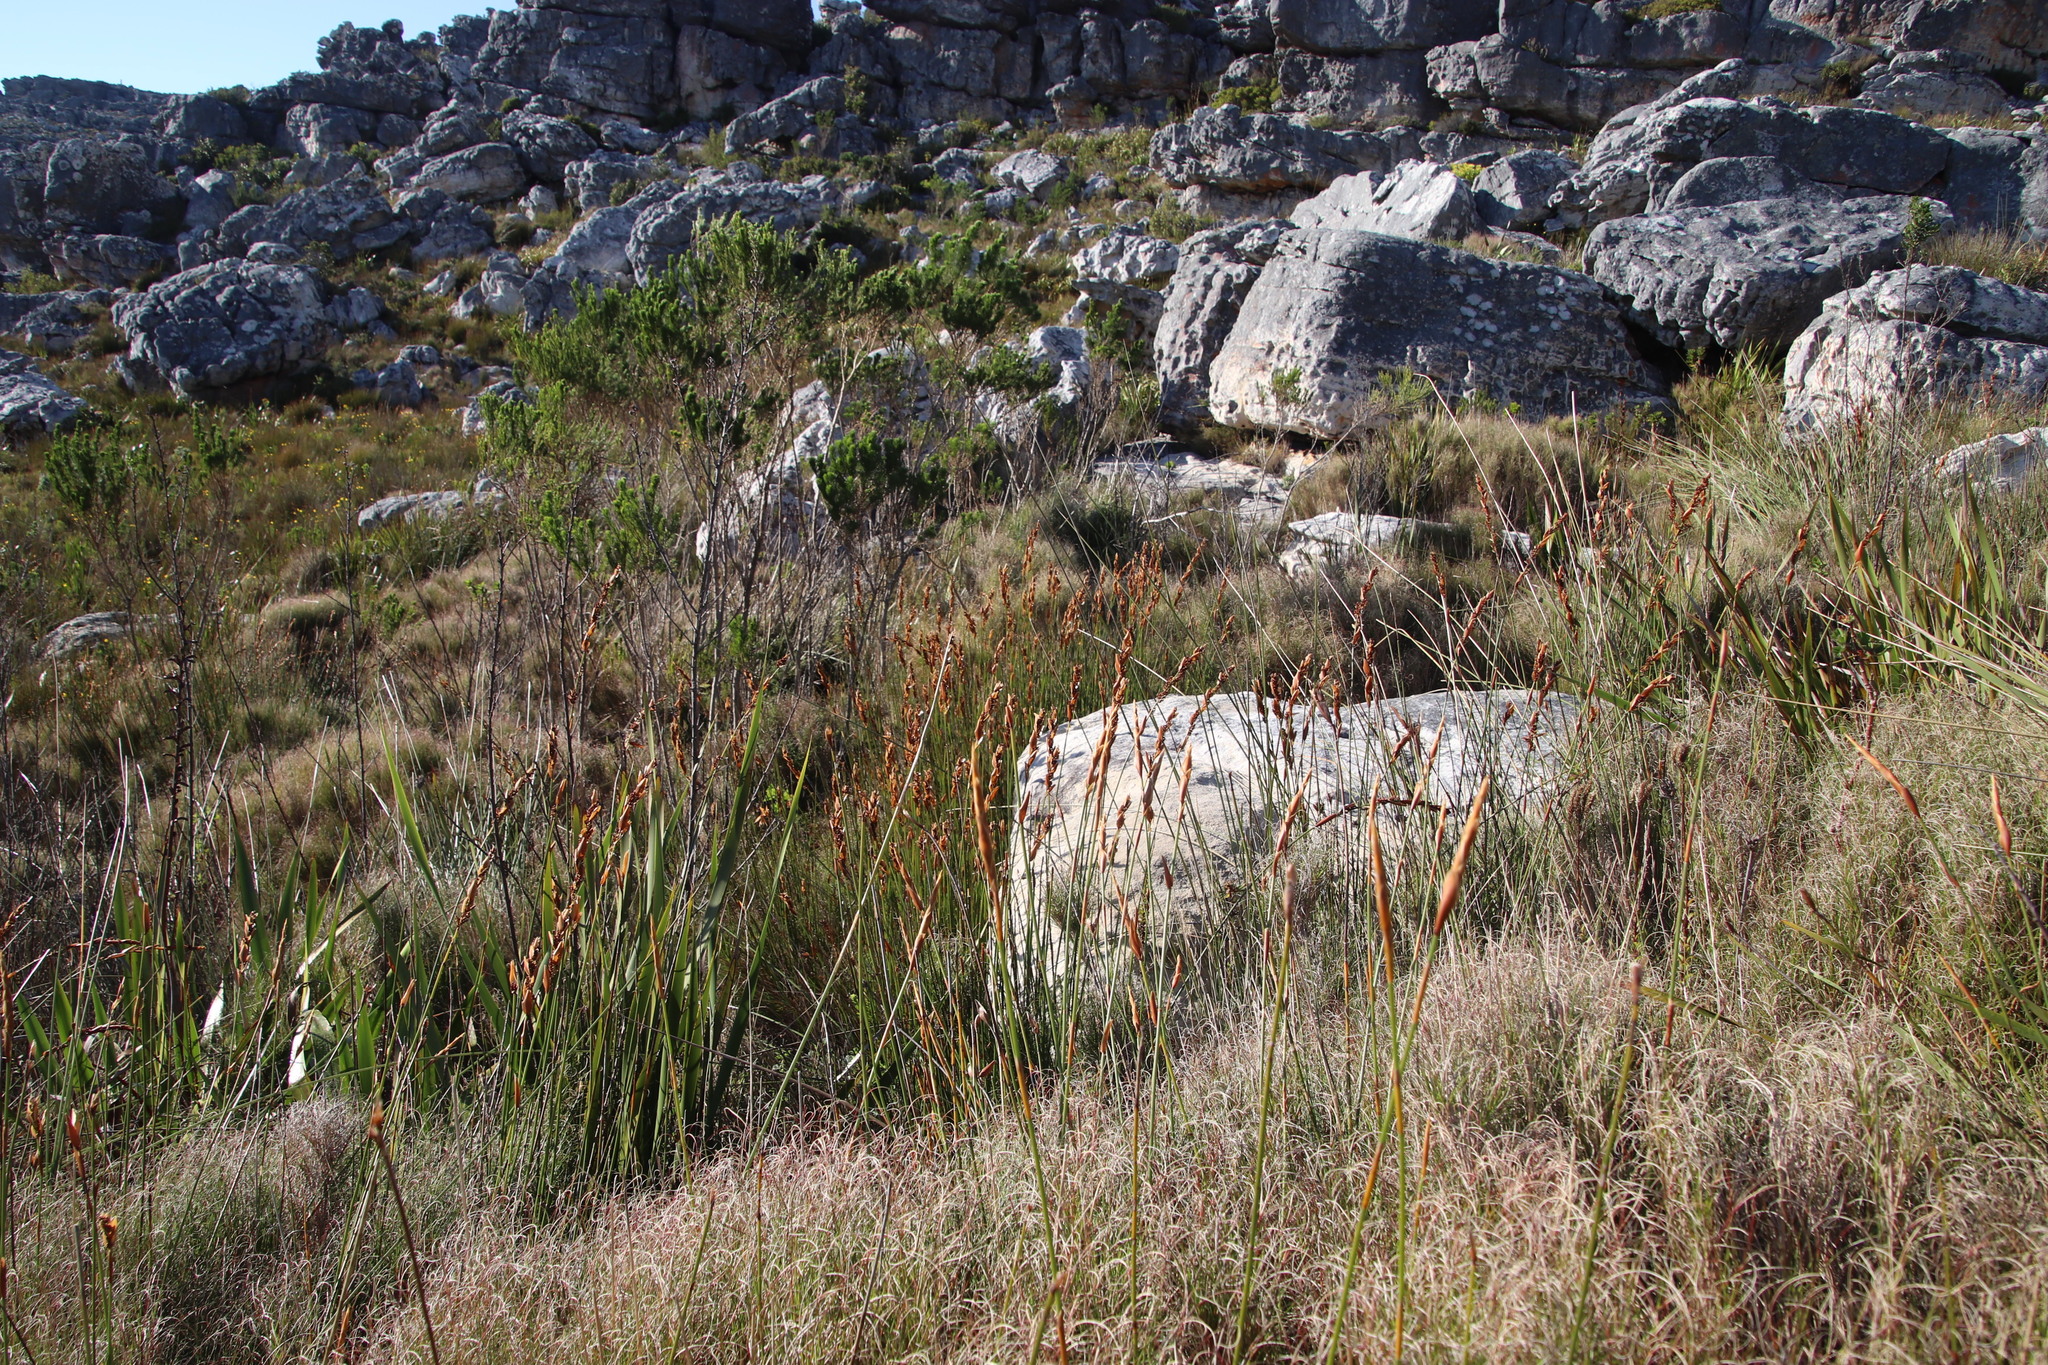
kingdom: Plantae
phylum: Tracheophyta
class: Liliopsida
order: Poales
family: Restionaceae
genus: Elegia
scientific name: Elegia racemosa
